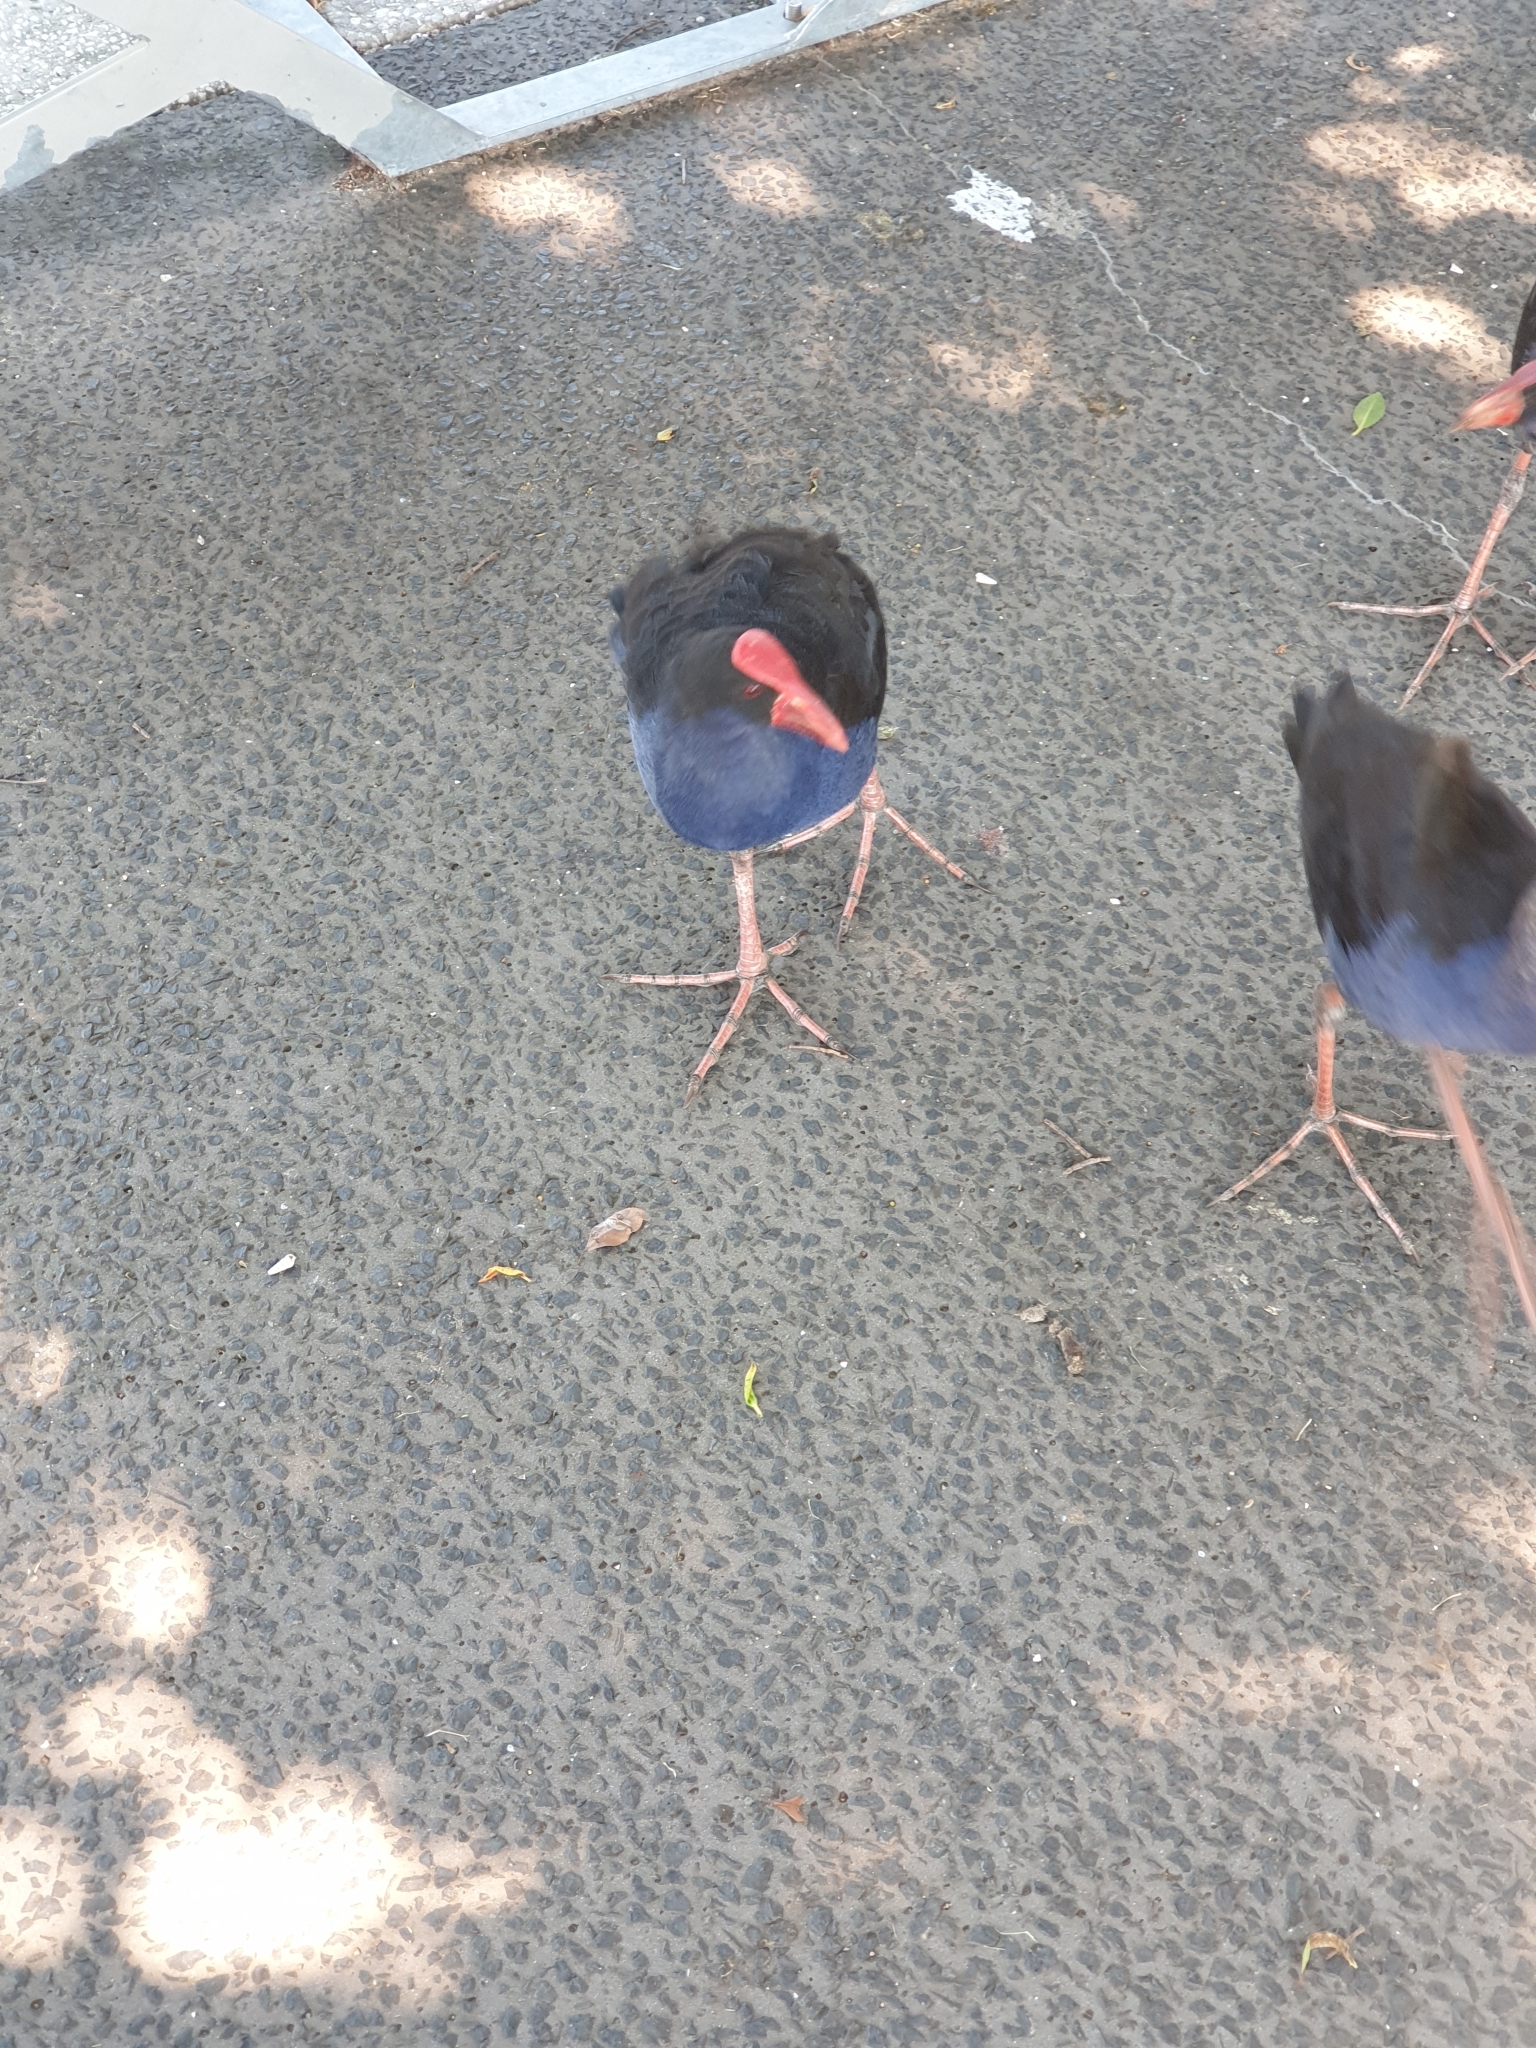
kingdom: Animalia
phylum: Chordata
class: Aves
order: Gruiformes
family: Rallidae
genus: Porphyrio
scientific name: Porphyrio melanotus
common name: Australasian swamphen
